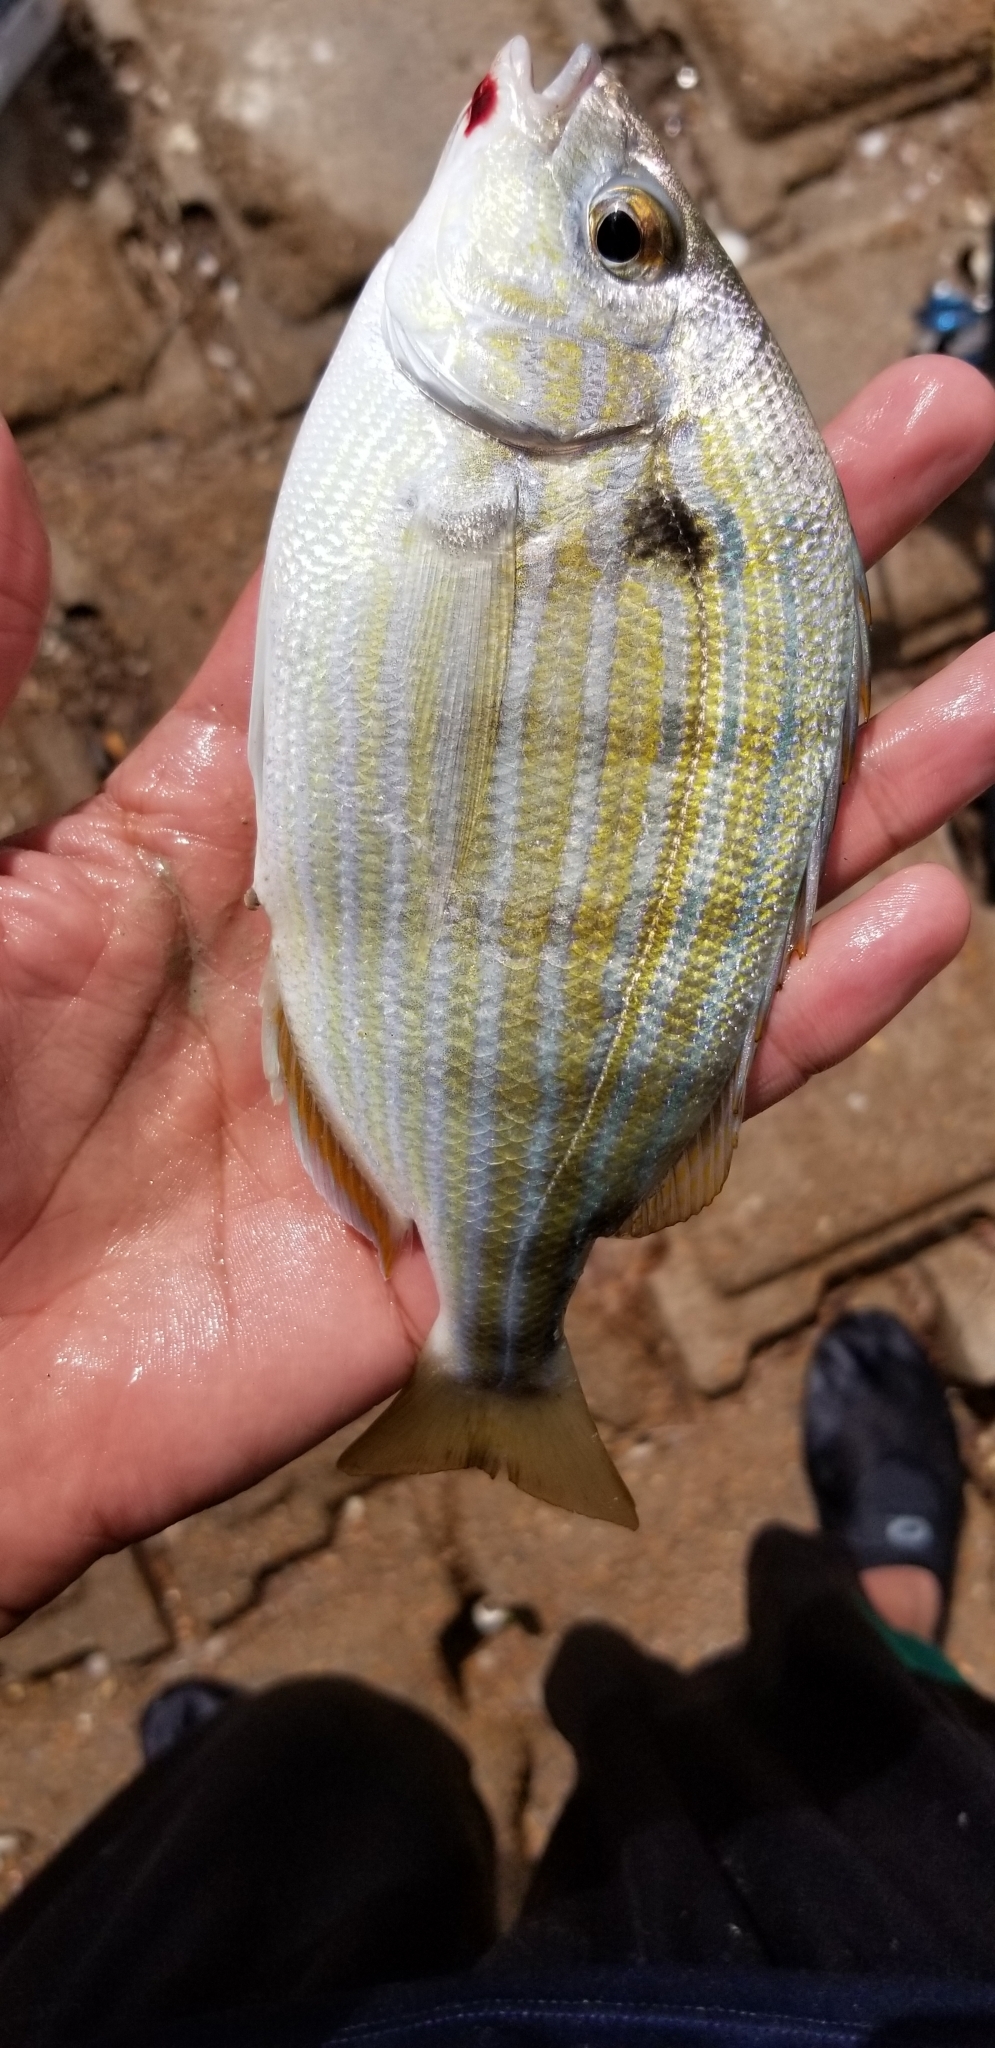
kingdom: Animalia
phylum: Chordata
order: Perciformes
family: Sparidae
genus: Lagodon
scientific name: Lagodon rhomboides
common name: Pinfish
